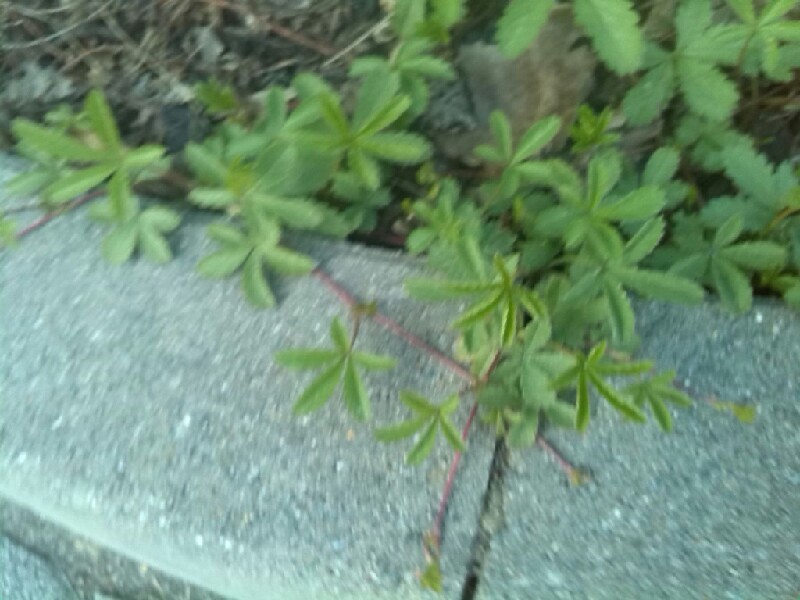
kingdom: Plantae
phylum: Tracheophyta
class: Magnoliopsida
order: Rosales
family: Rosaceae
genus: Potentilla
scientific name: Potentilla reptans
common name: Creeping cinquefoil
